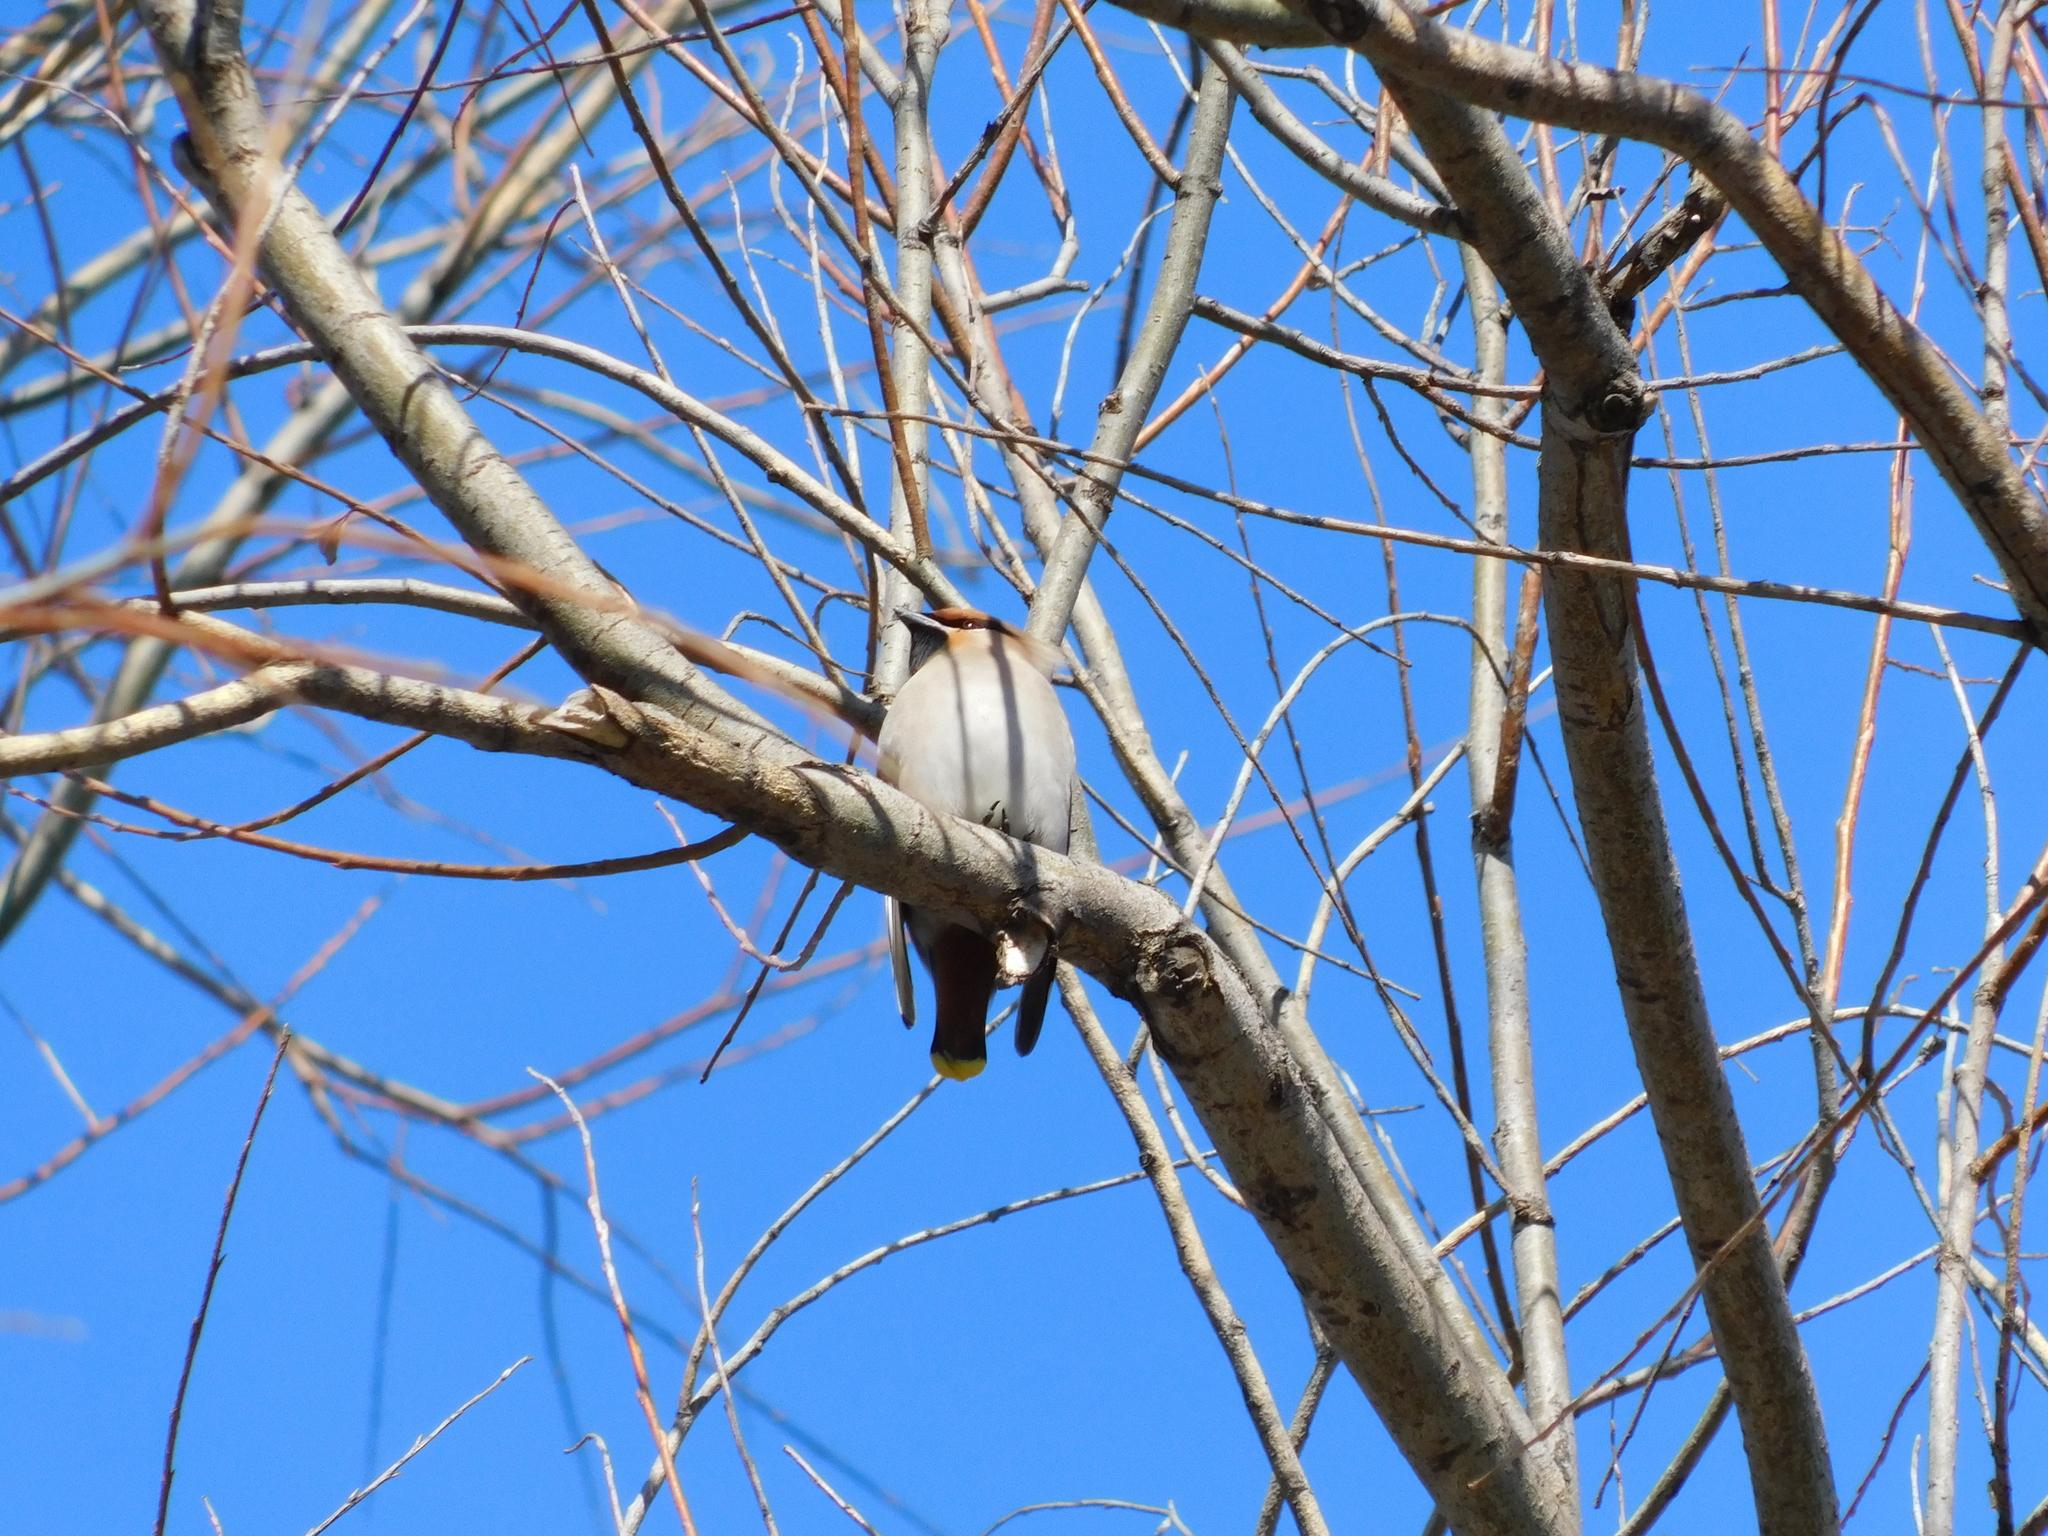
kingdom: Animalia
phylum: Chordata
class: Aves
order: Passeriformes
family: Bombycillidae
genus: Bombycilla
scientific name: Bombycilla garrulus
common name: Bohemian waxwing
